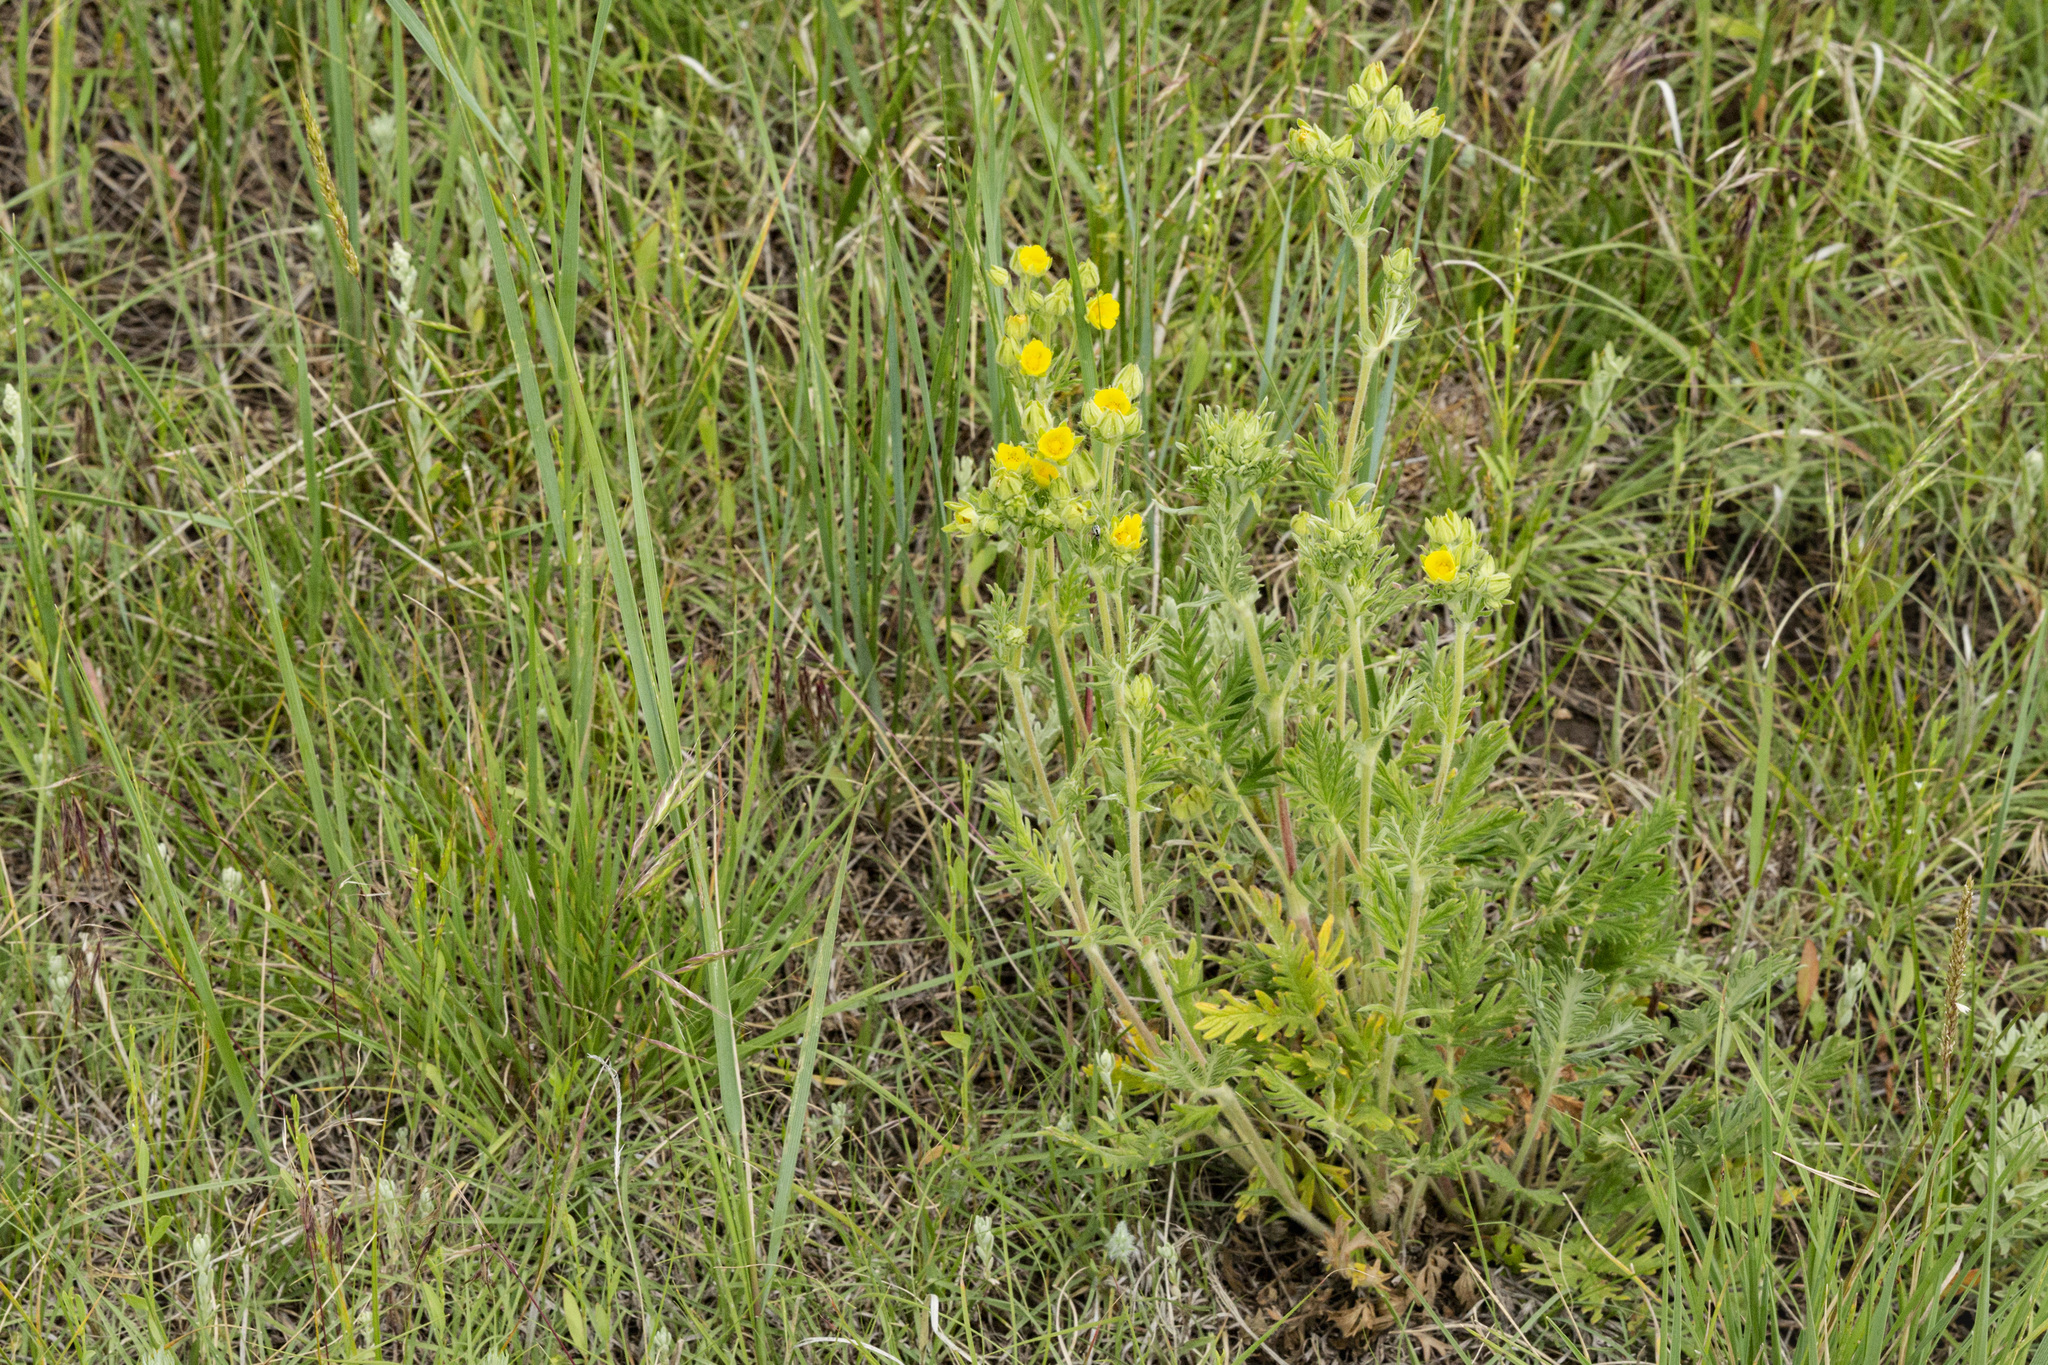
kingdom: Plantae
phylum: Tracheophyta
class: Magnoliopsida
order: Rosales
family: Rosaceae
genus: Potentilla
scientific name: Potentilla pensylvanica
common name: Pennsylvania cinquefoil
